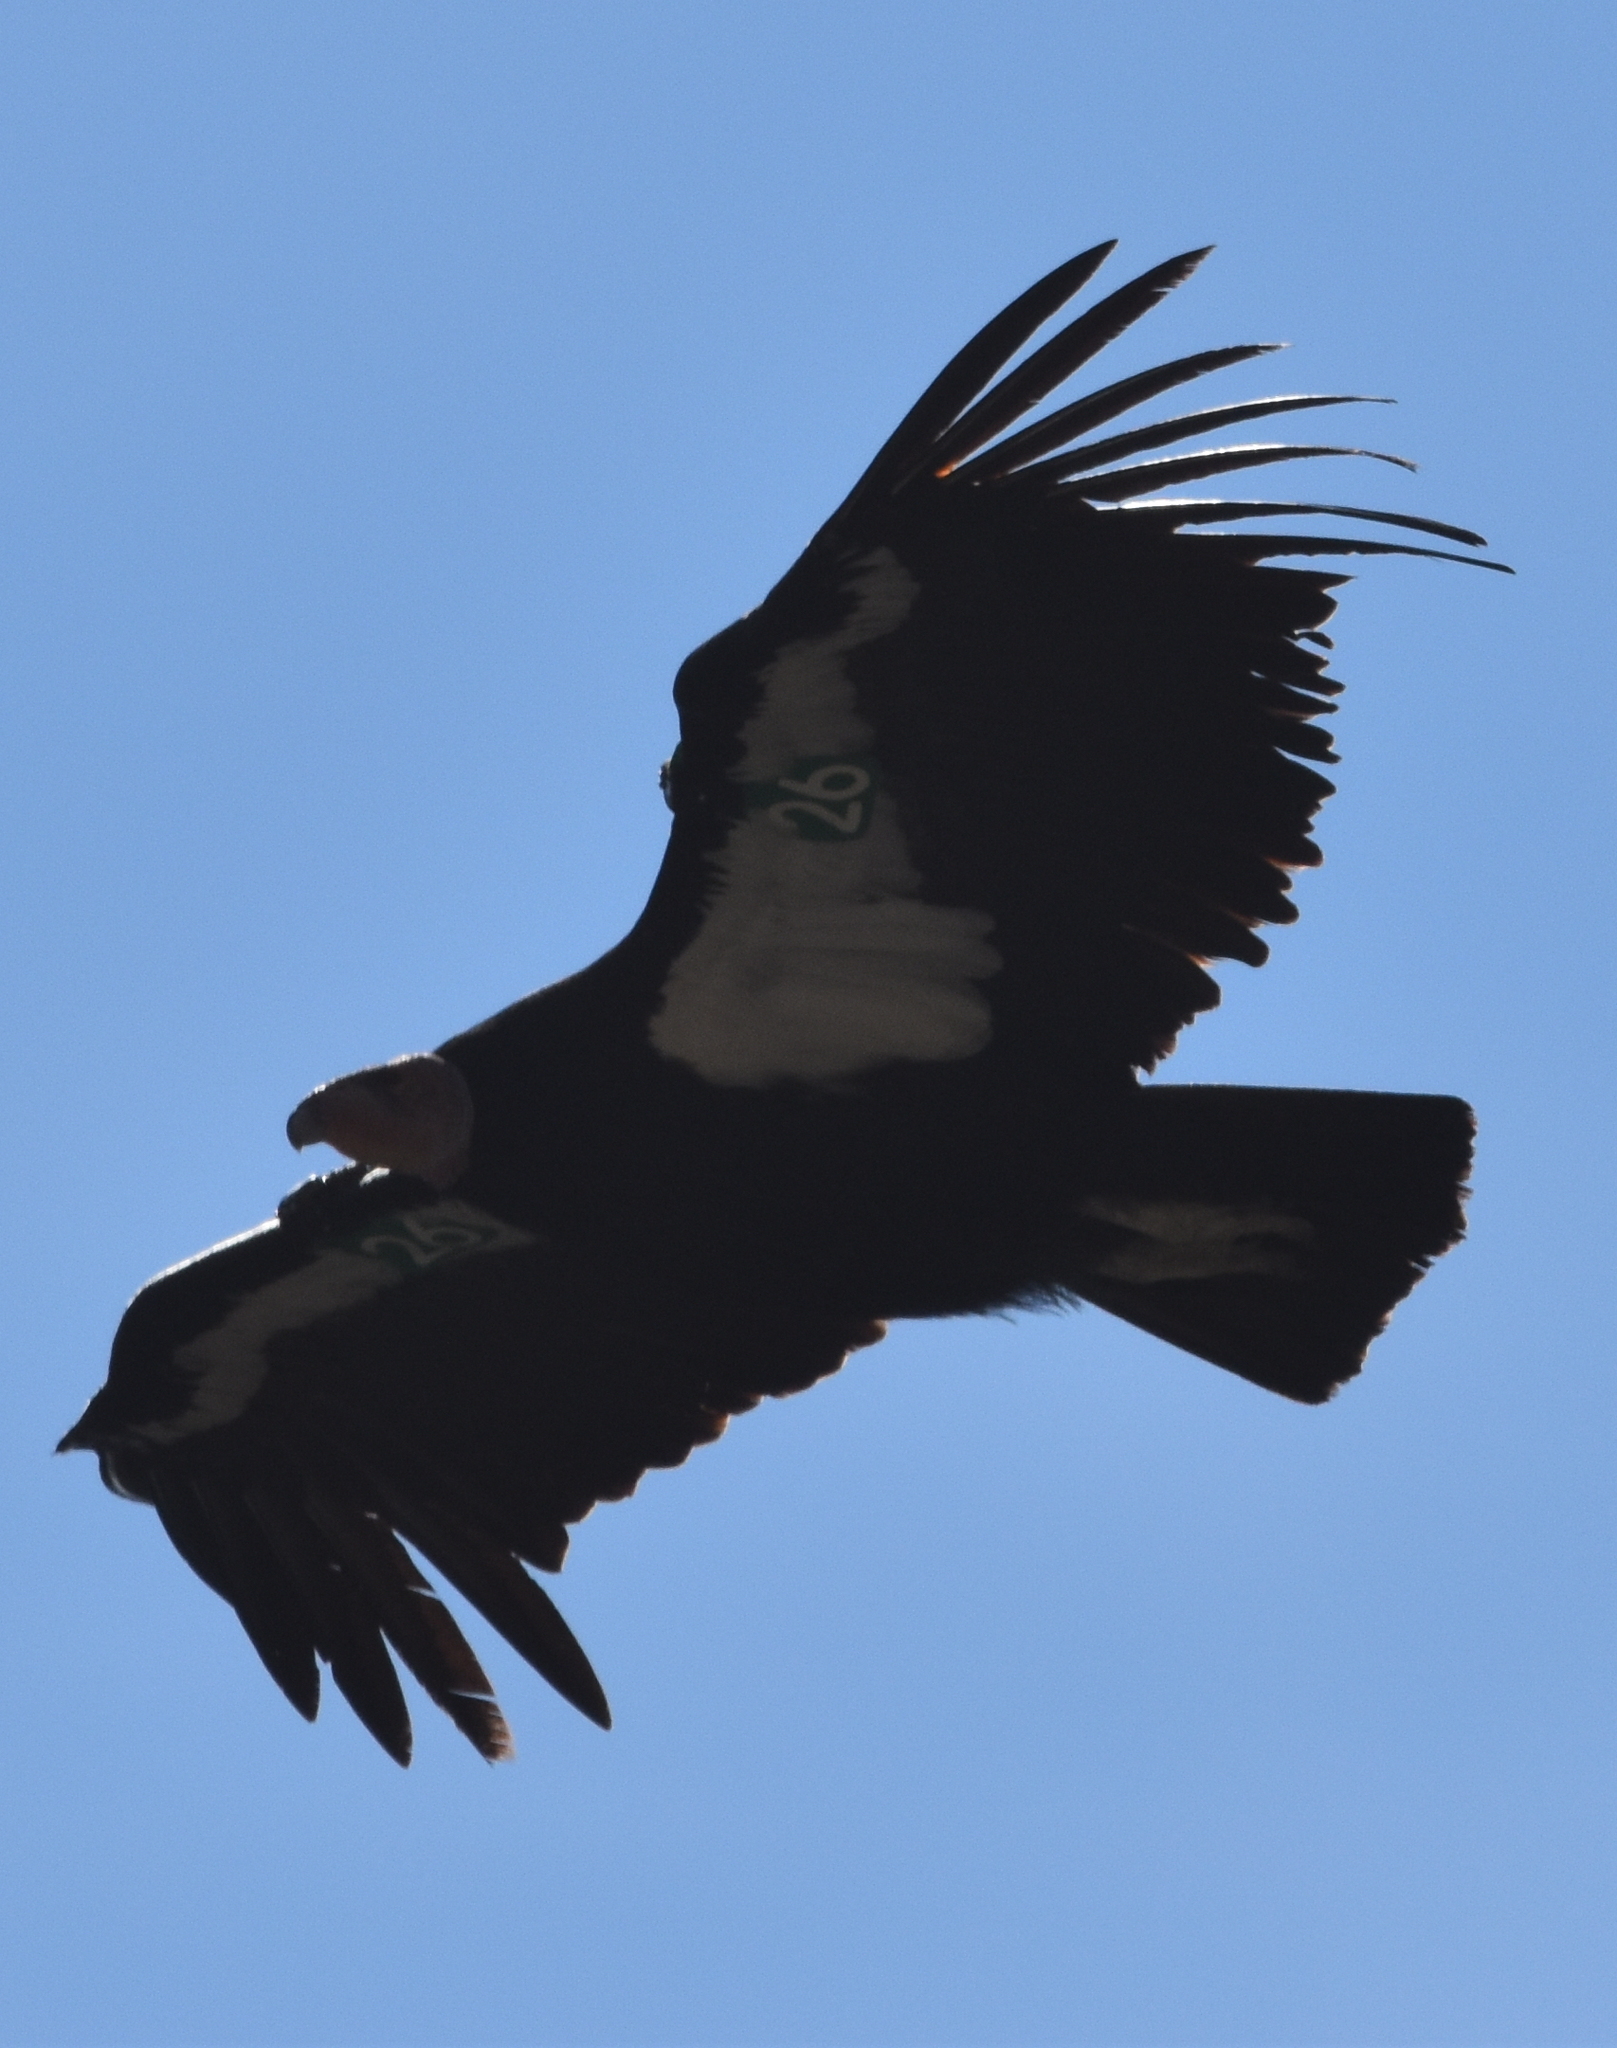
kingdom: Animalia
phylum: Chordata
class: Aves
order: Accipitriformes
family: Cathartidae
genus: Gymnogyps
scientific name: Gymnogyps californianus
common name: California condor
